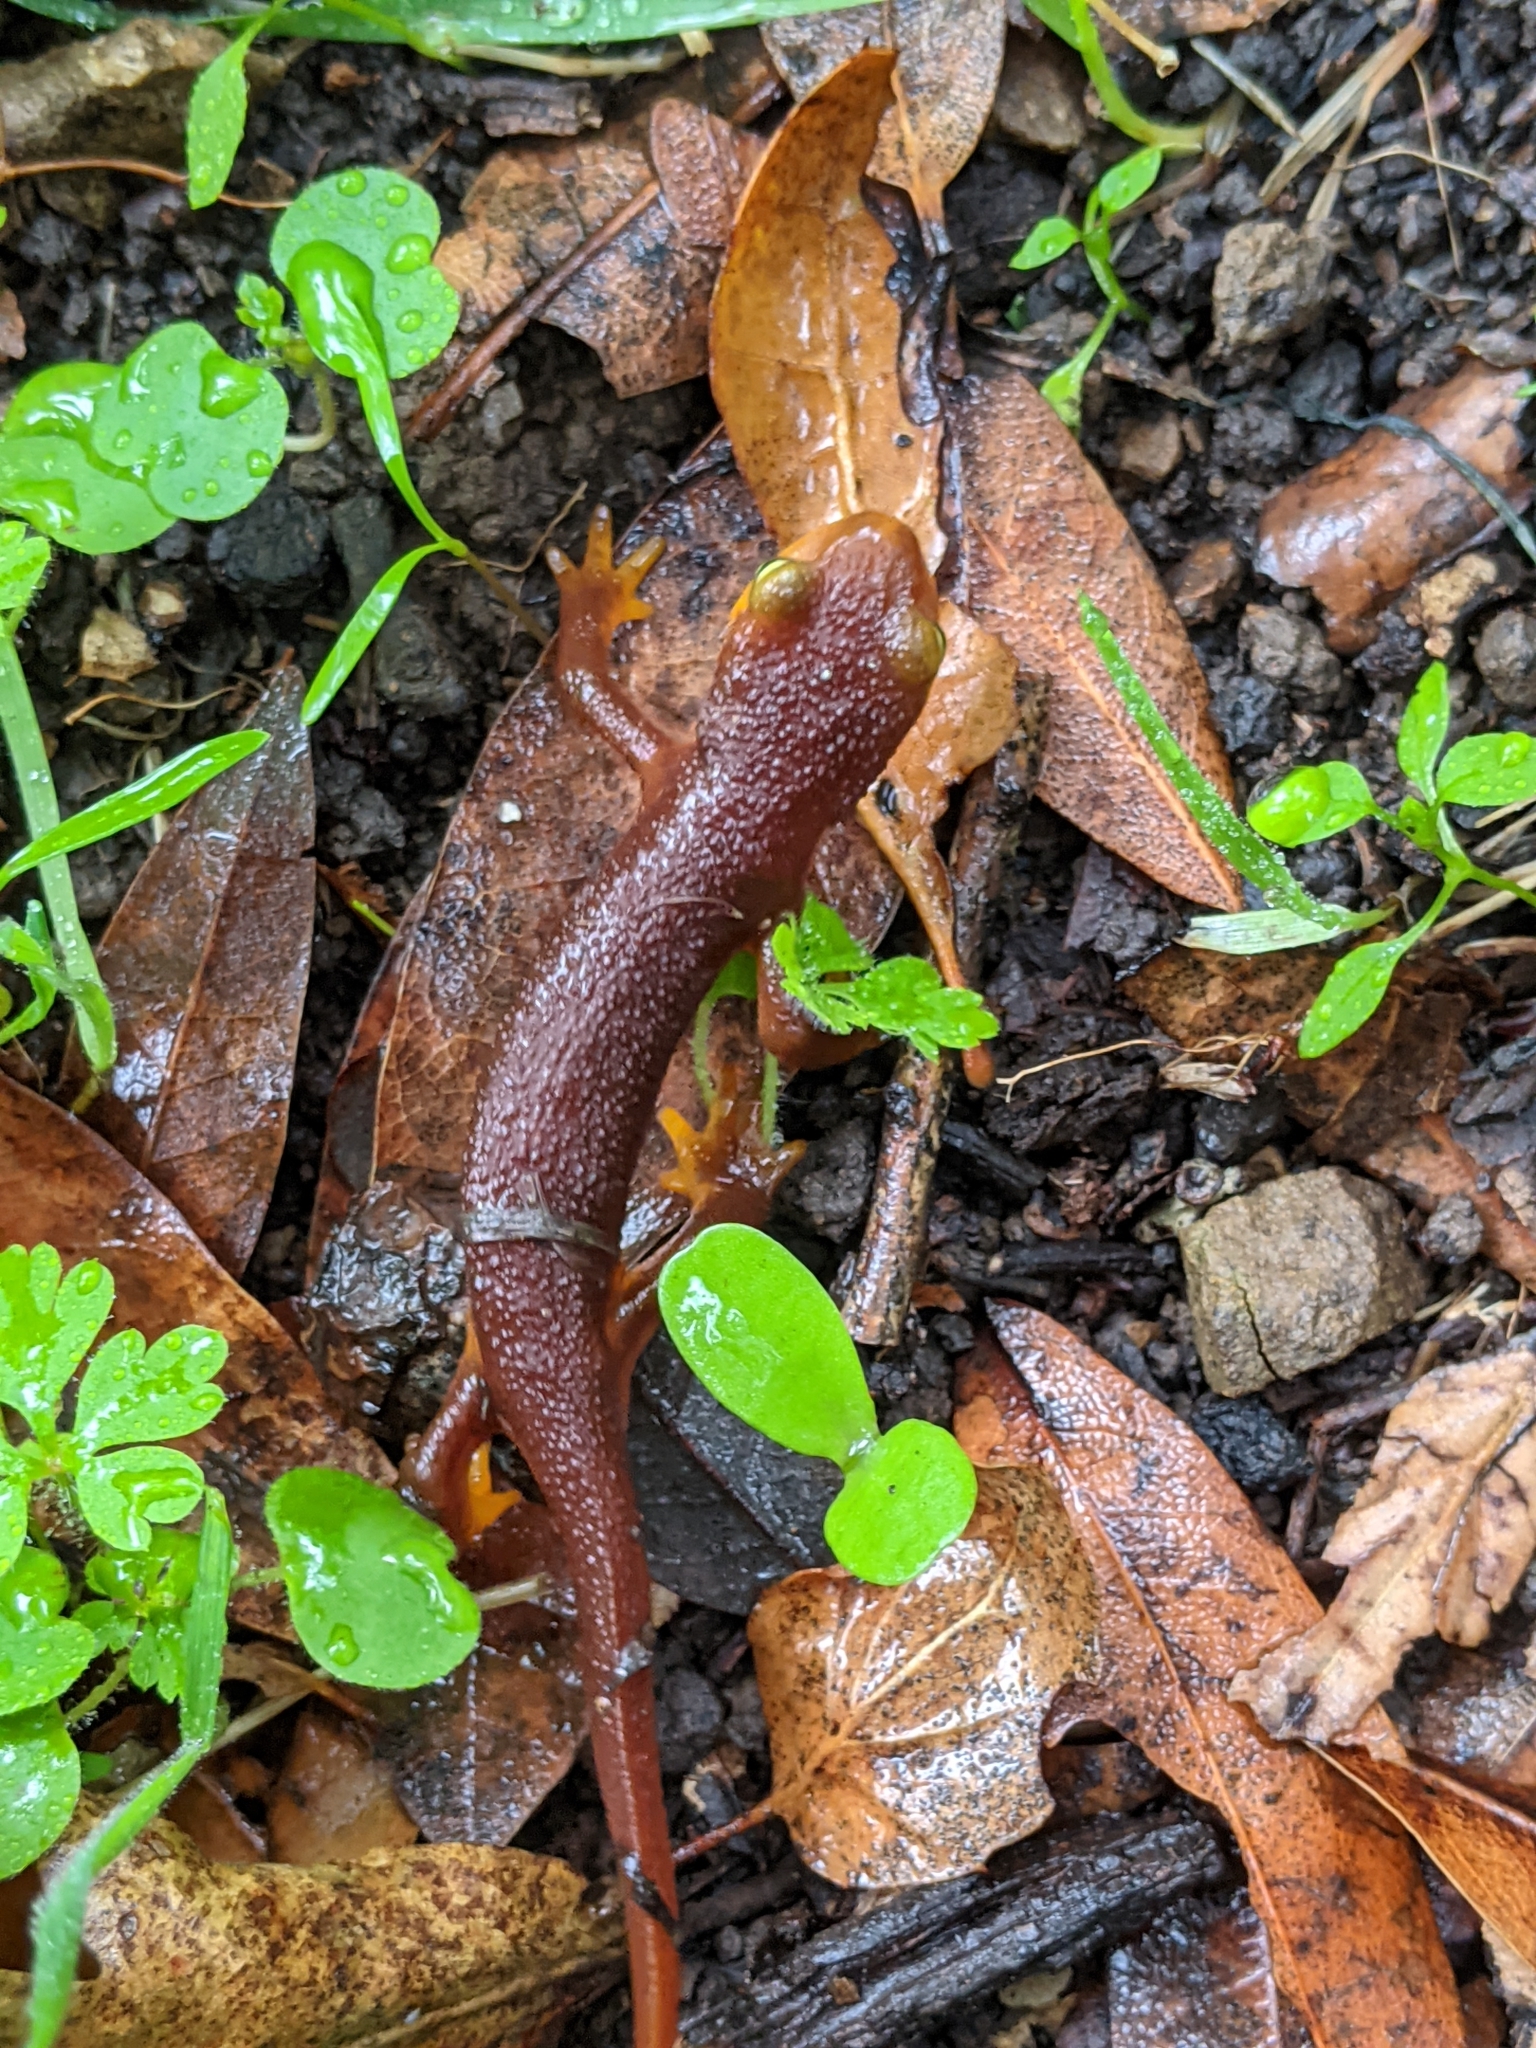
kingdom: Animalia
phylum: Chordata
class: Amphibia
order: Caudata
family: Salamandridae
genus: Taricha
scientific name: Taricha torosa
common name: California newt
